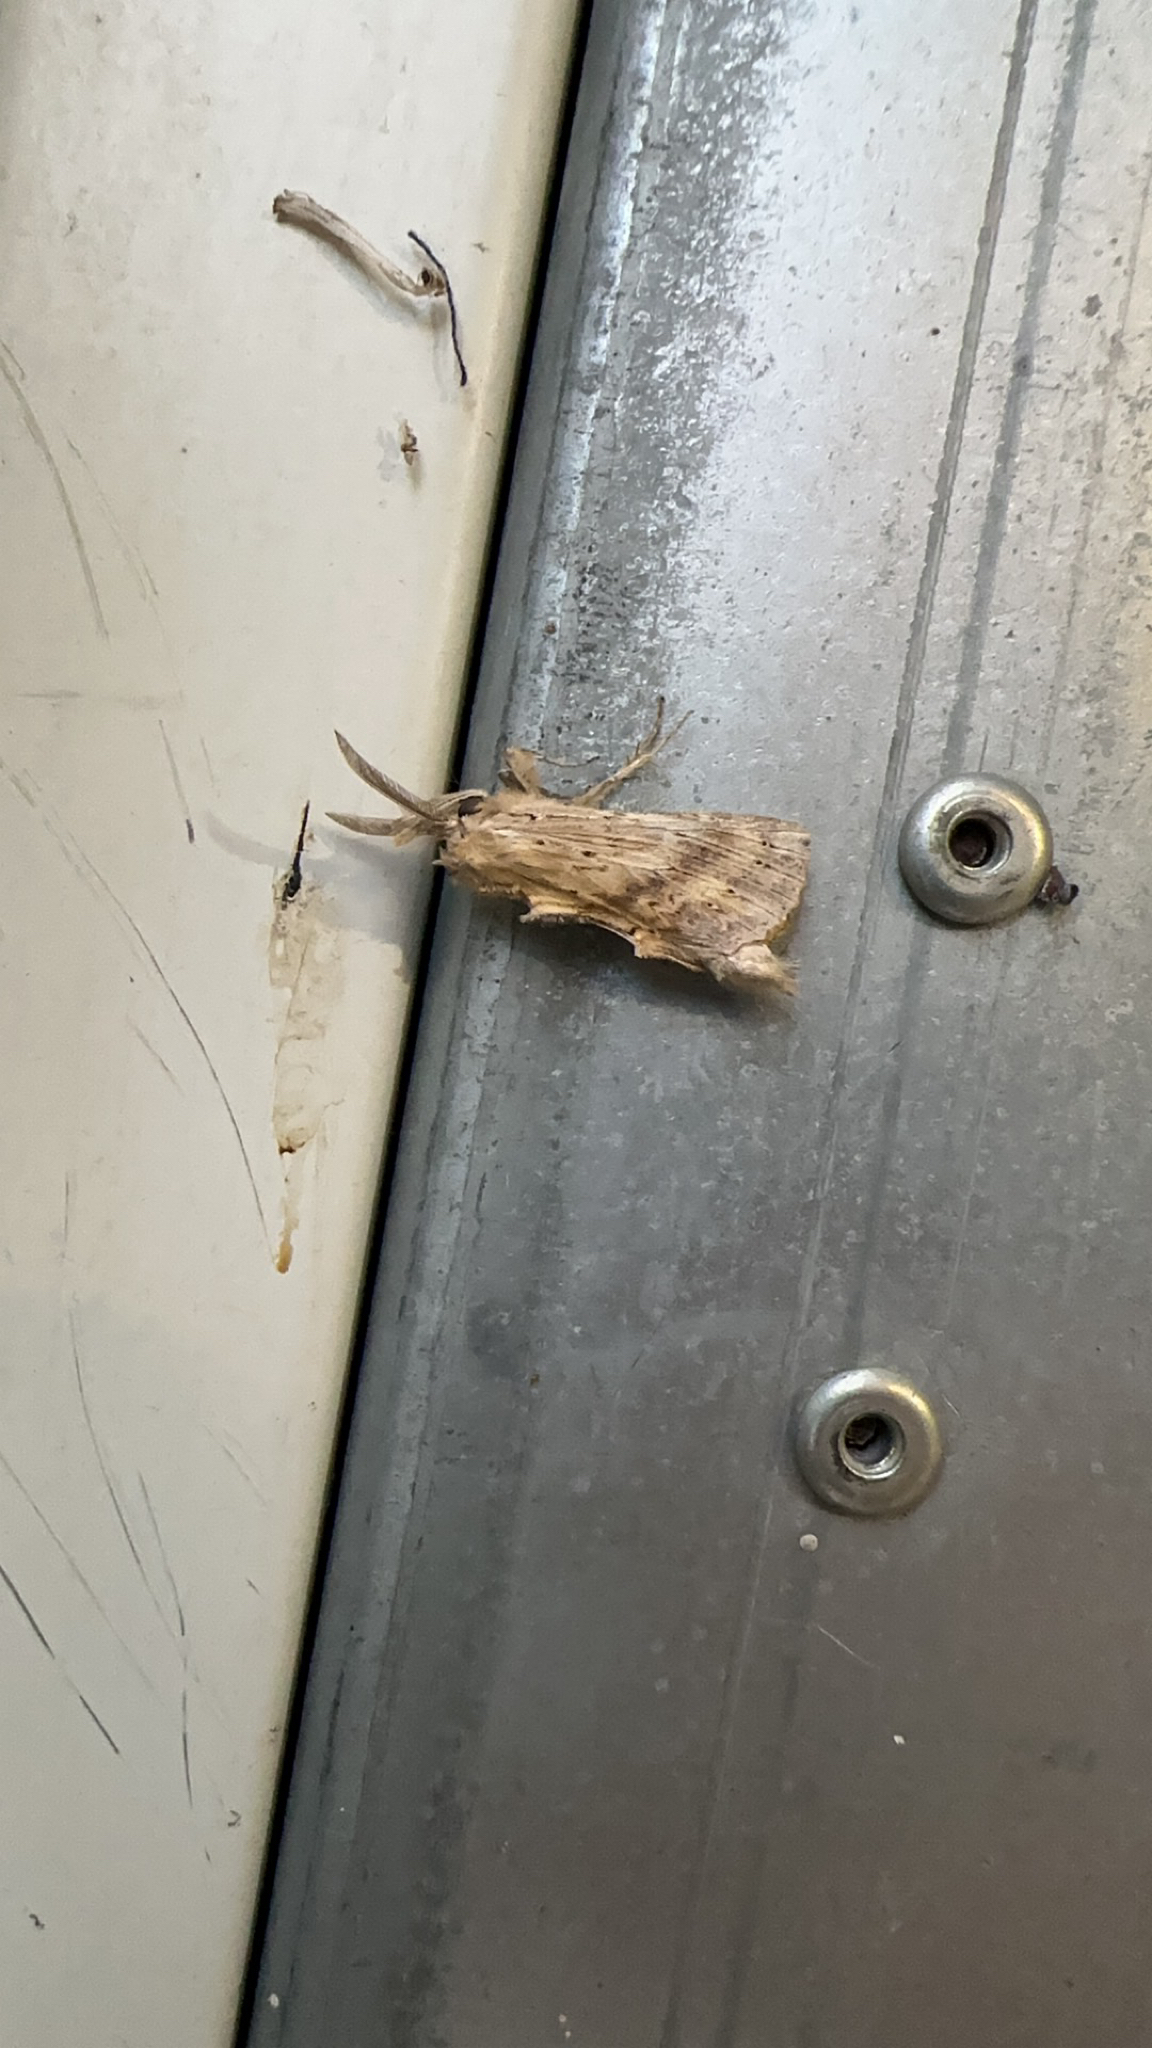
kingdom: Animalia
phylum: Arthropoda
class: Insecta
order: Lepidoptera
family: Notodontidae
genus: Pterostoma
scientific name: Pterostoma palpina
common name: Pale prominent
